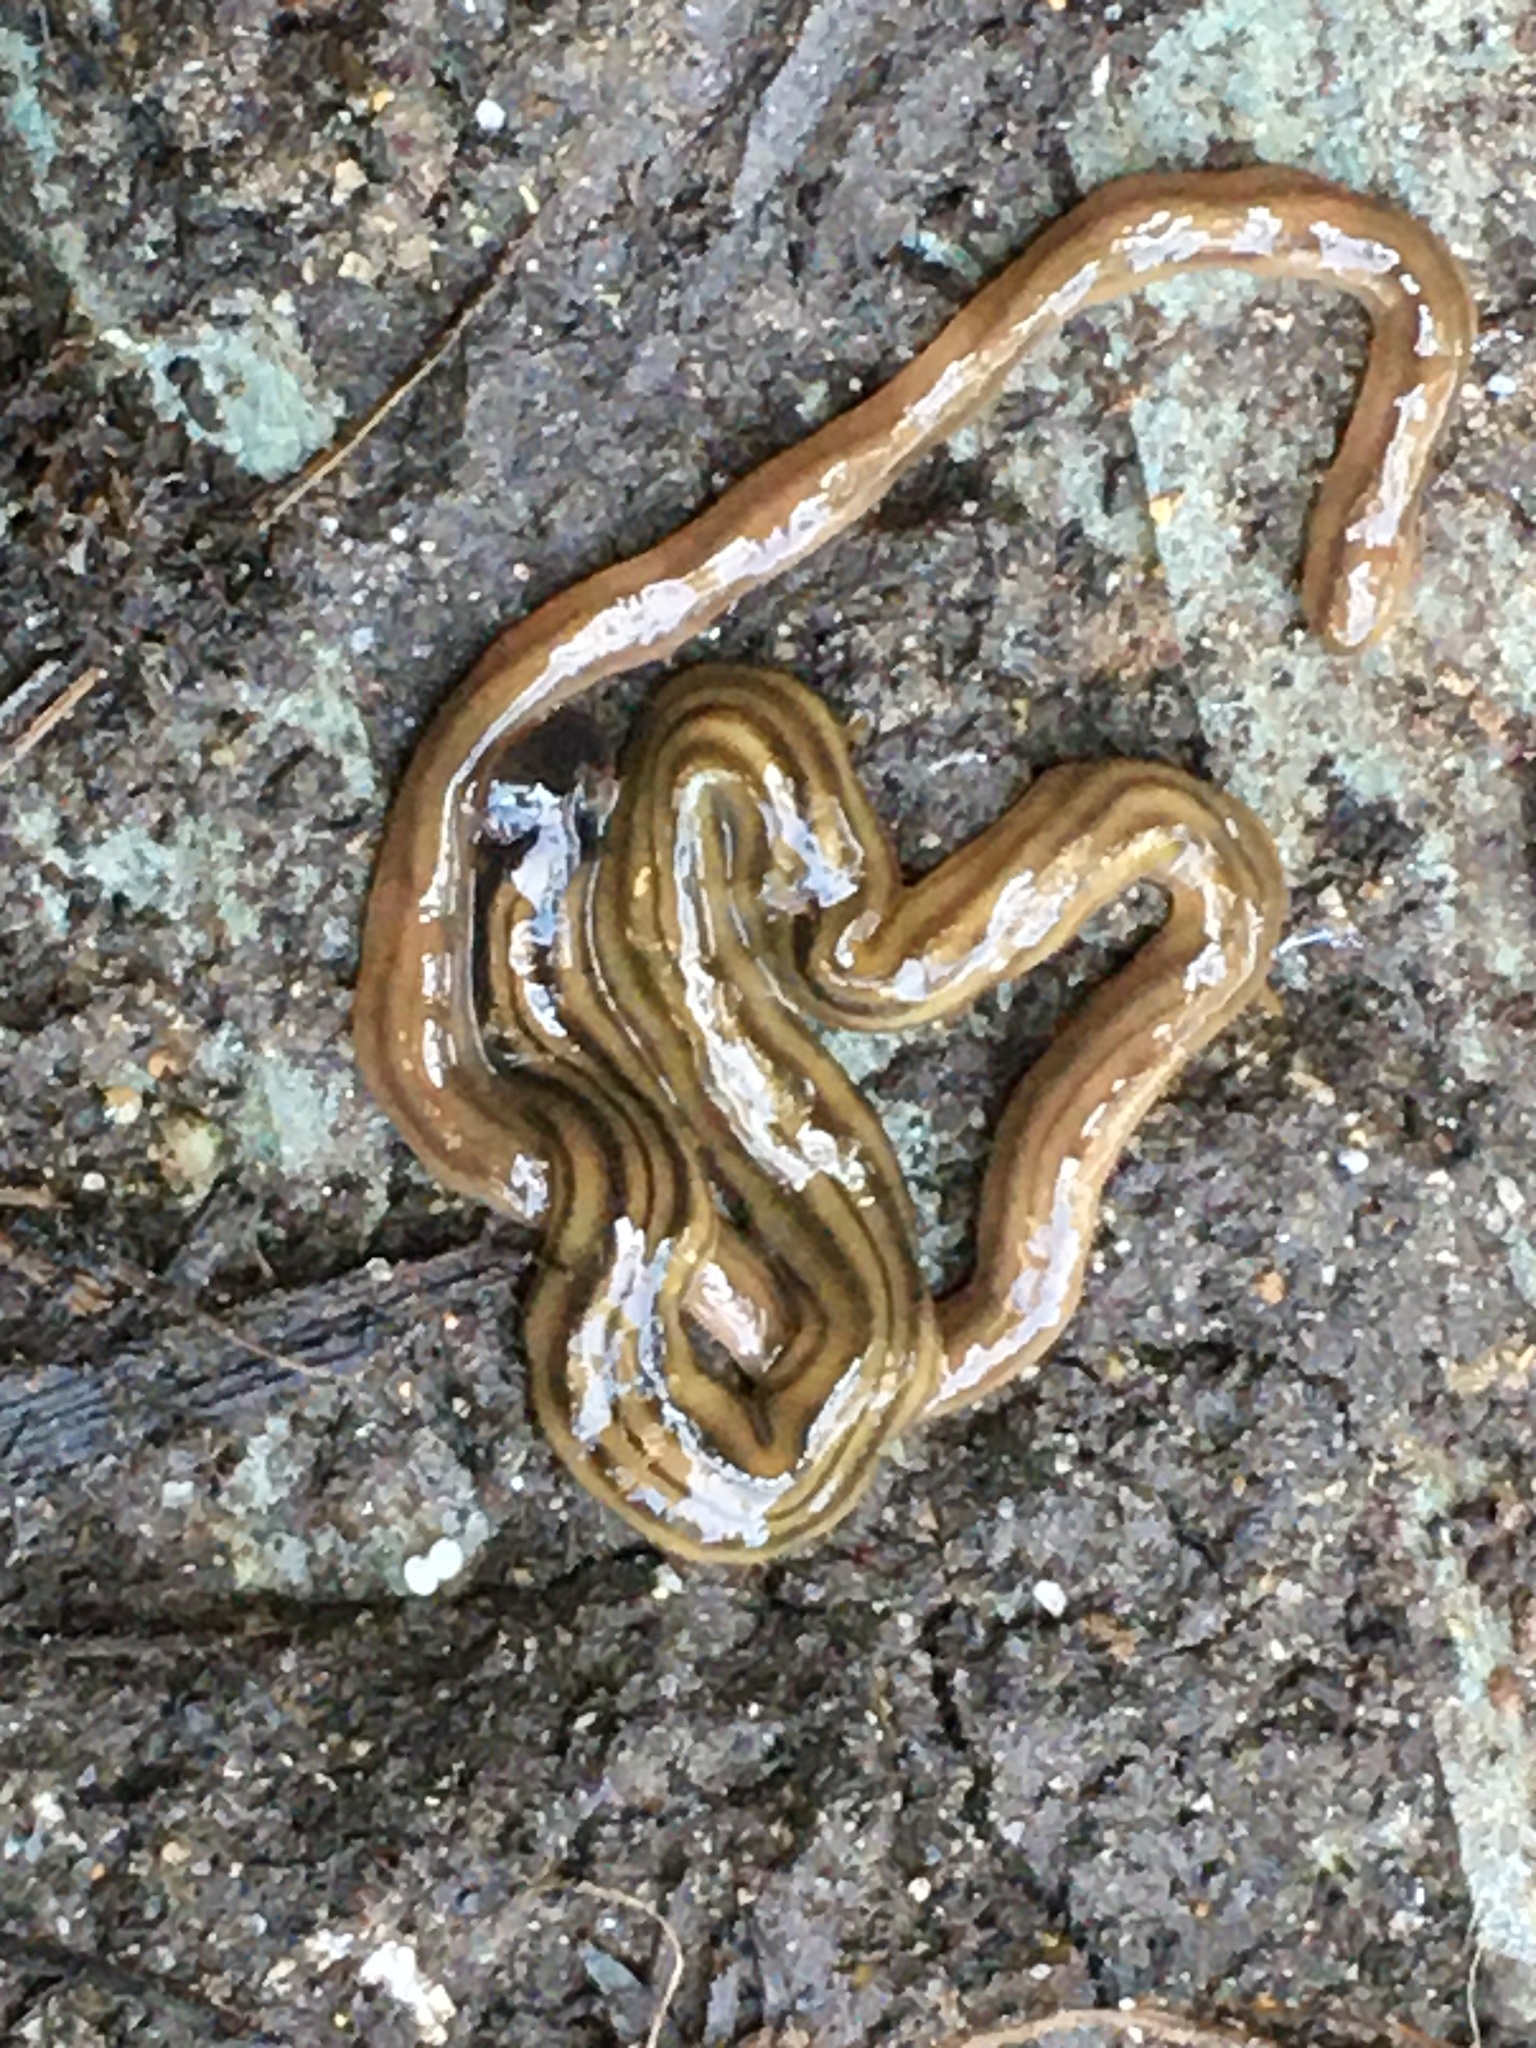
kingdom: Animalia
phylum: Platyhelminthes
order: Tricladida
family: Geoplanidae
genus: Bipalium
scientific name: Bipalium kewense
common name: Hammerhead flatworm
